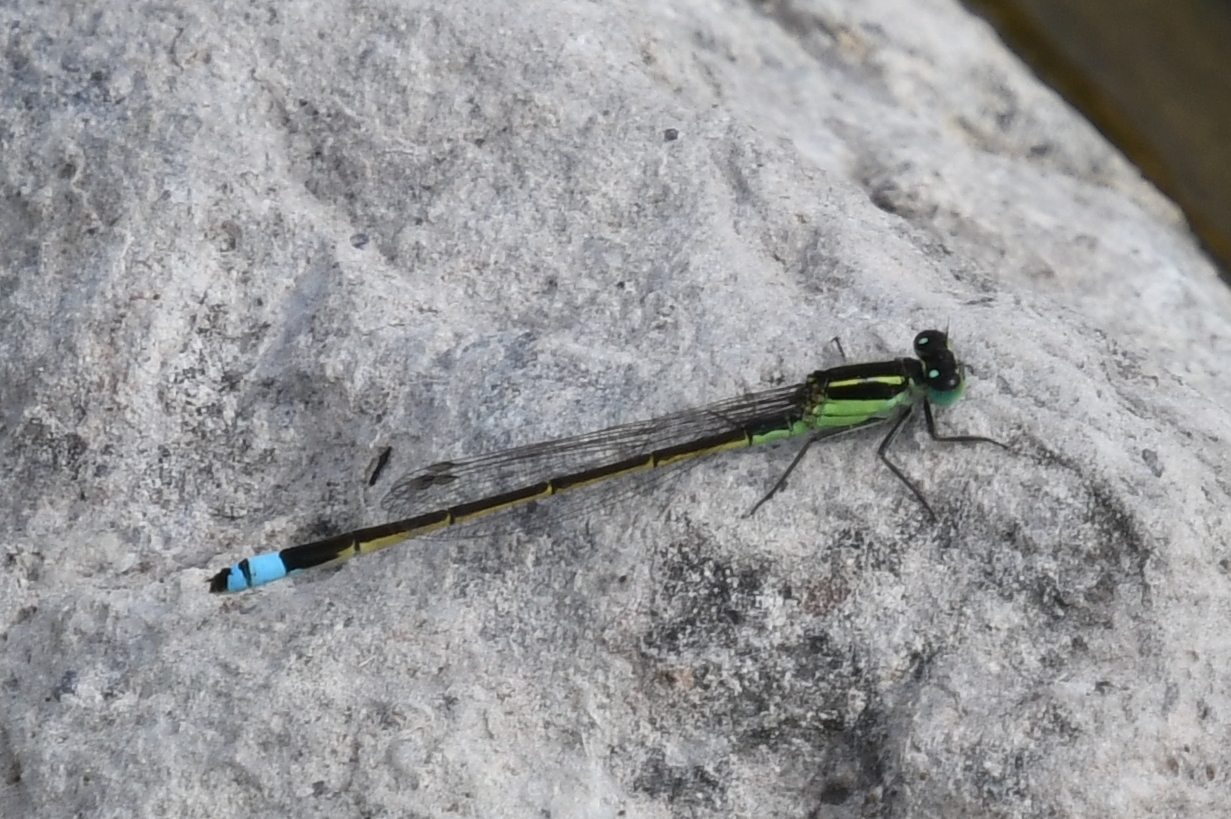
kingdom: Animalia
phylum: Arthropoda
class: Insecta
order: Odonata
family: Coenagrionidae
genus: Ischnura
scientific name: Ischnura ramburii
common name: Rambur's forktail
